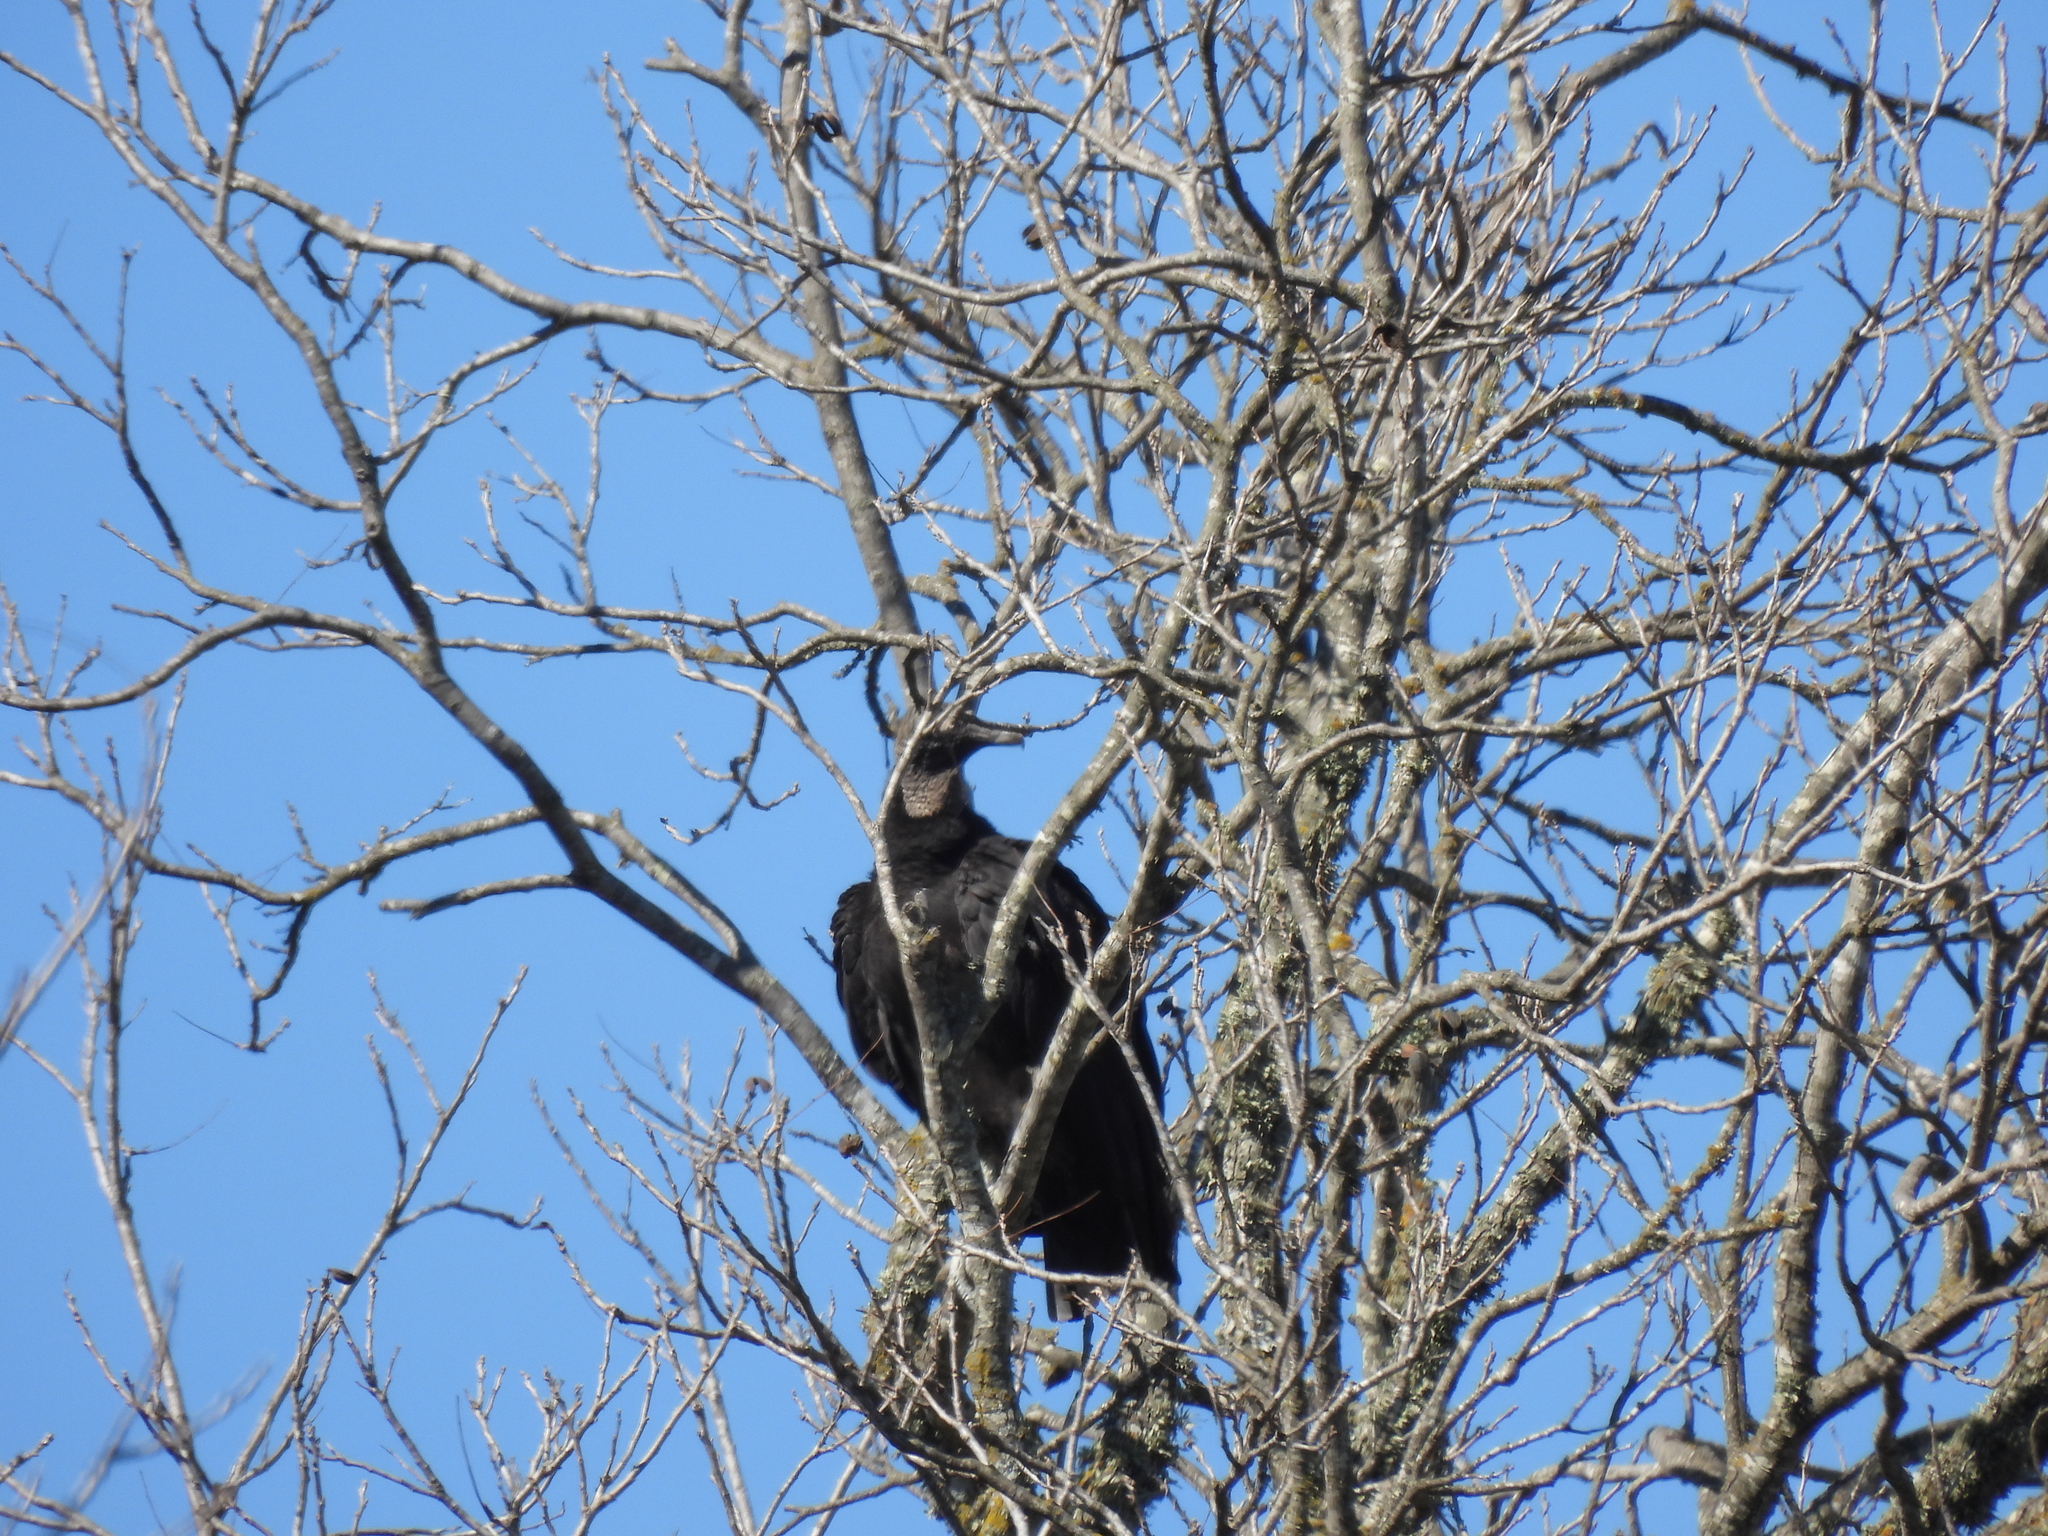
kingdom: Animalia
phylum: Chordata
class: Aves
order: Accipitriformes
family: Cathartidae
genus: Coragyps
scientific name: Coragyps atratus
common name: Black vulture
